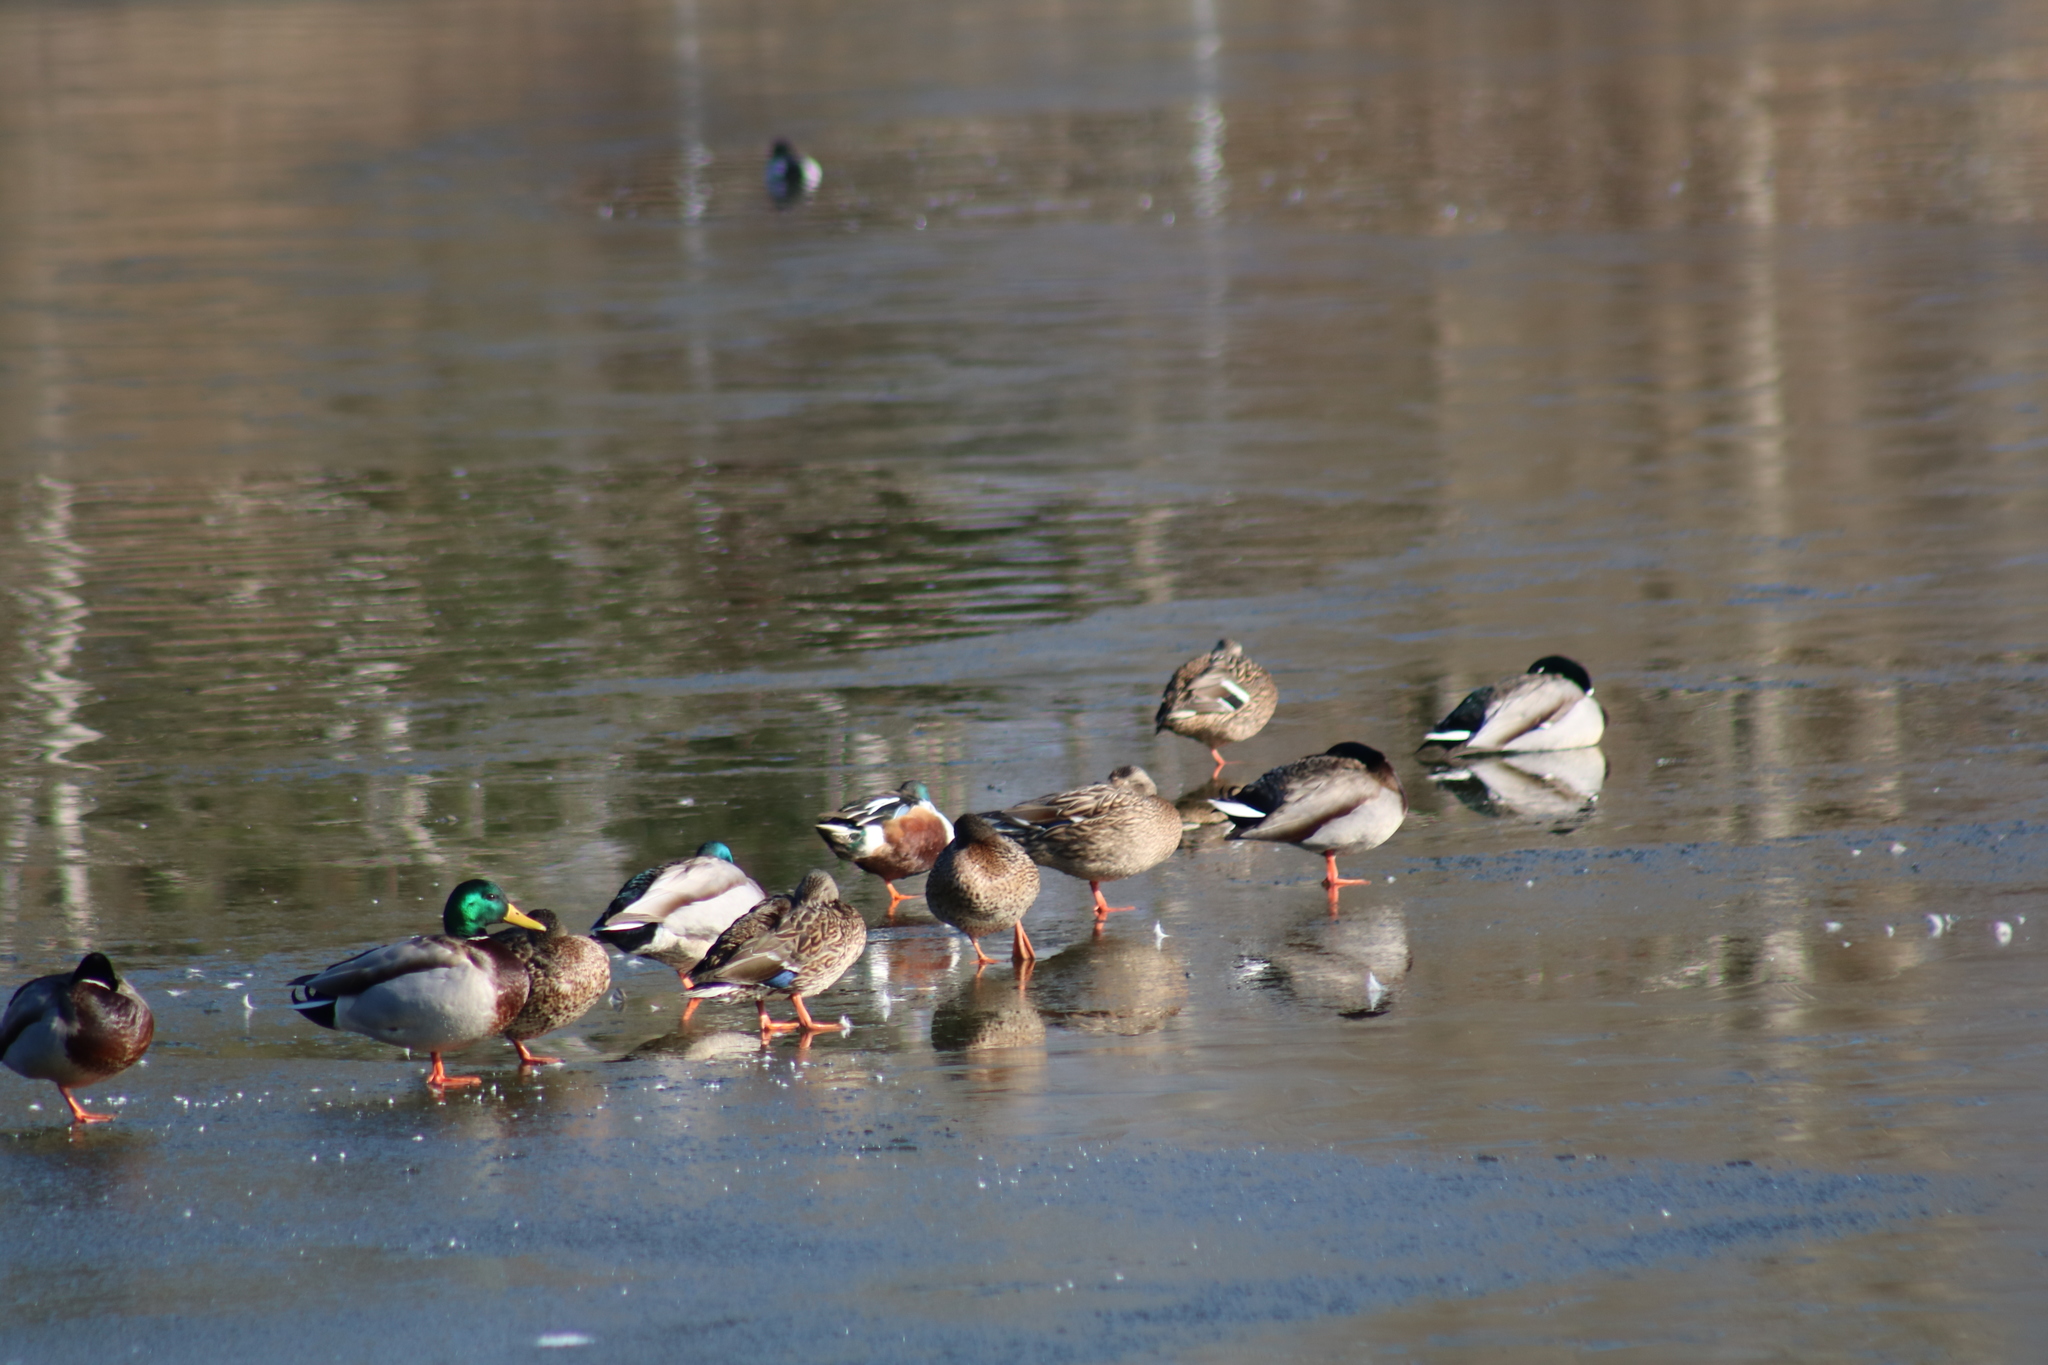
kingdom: Animalia
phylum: Chordata
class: Aves
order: Anseriformes
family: Anatidae
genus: Spatula
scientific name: Spatula clypeata
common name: Northern shoveler
